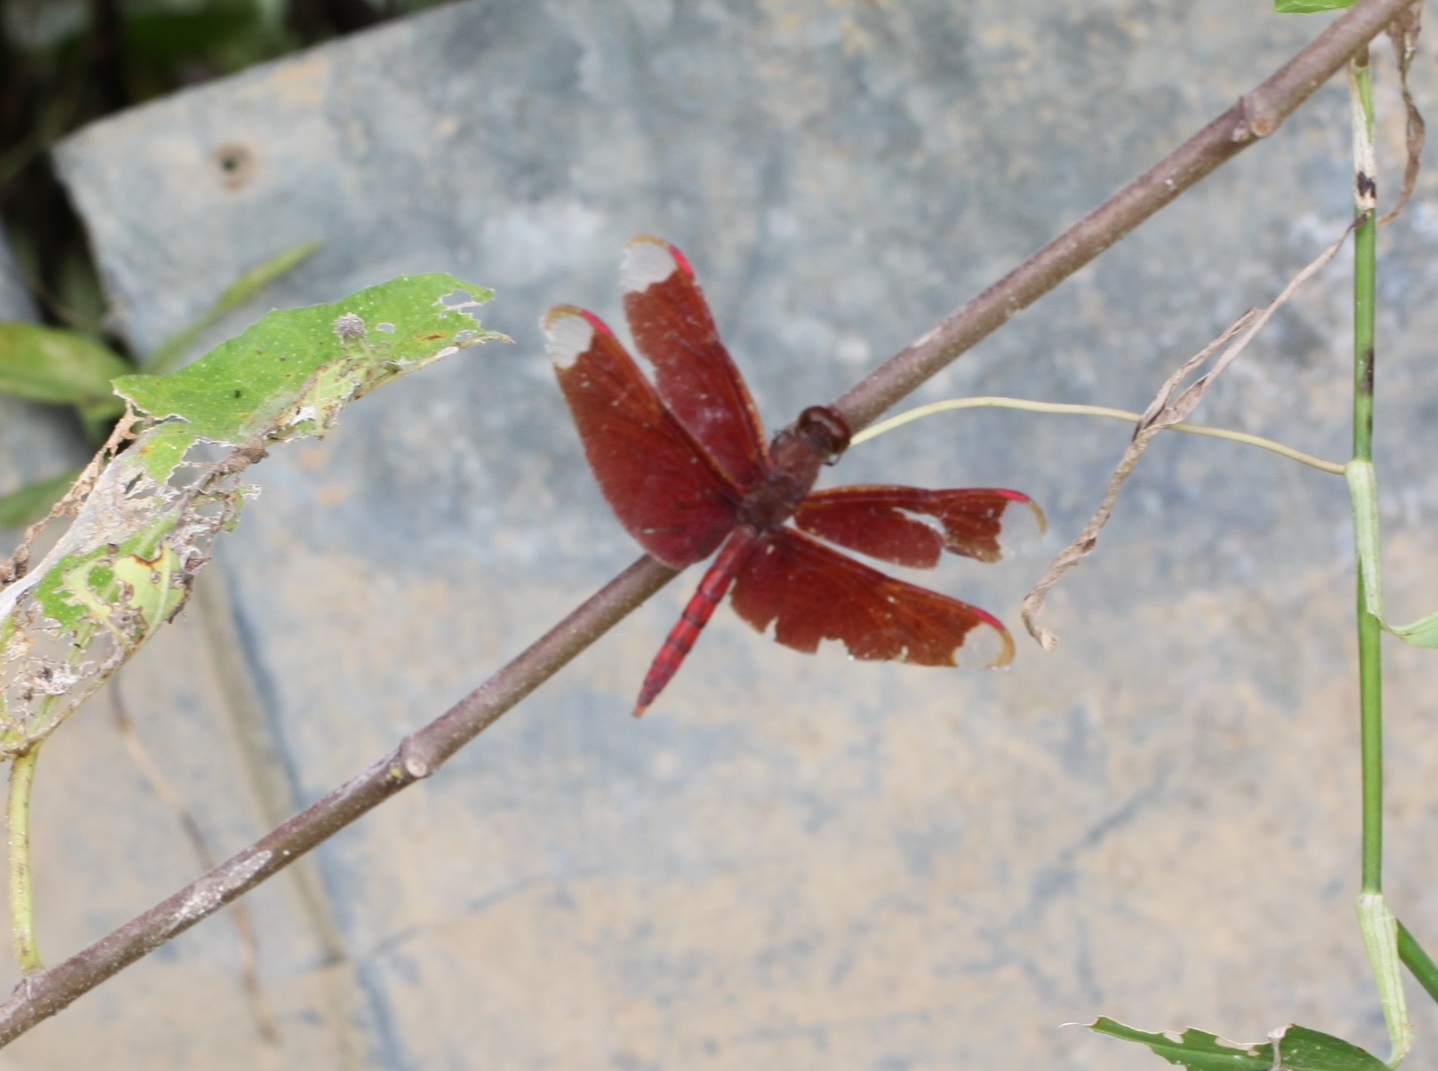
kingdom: Animalia
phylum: Arthropoda
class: Insecta
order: Odonata
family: Libellulidae
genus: Neurothemis
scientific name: Neurothemis fulvia
